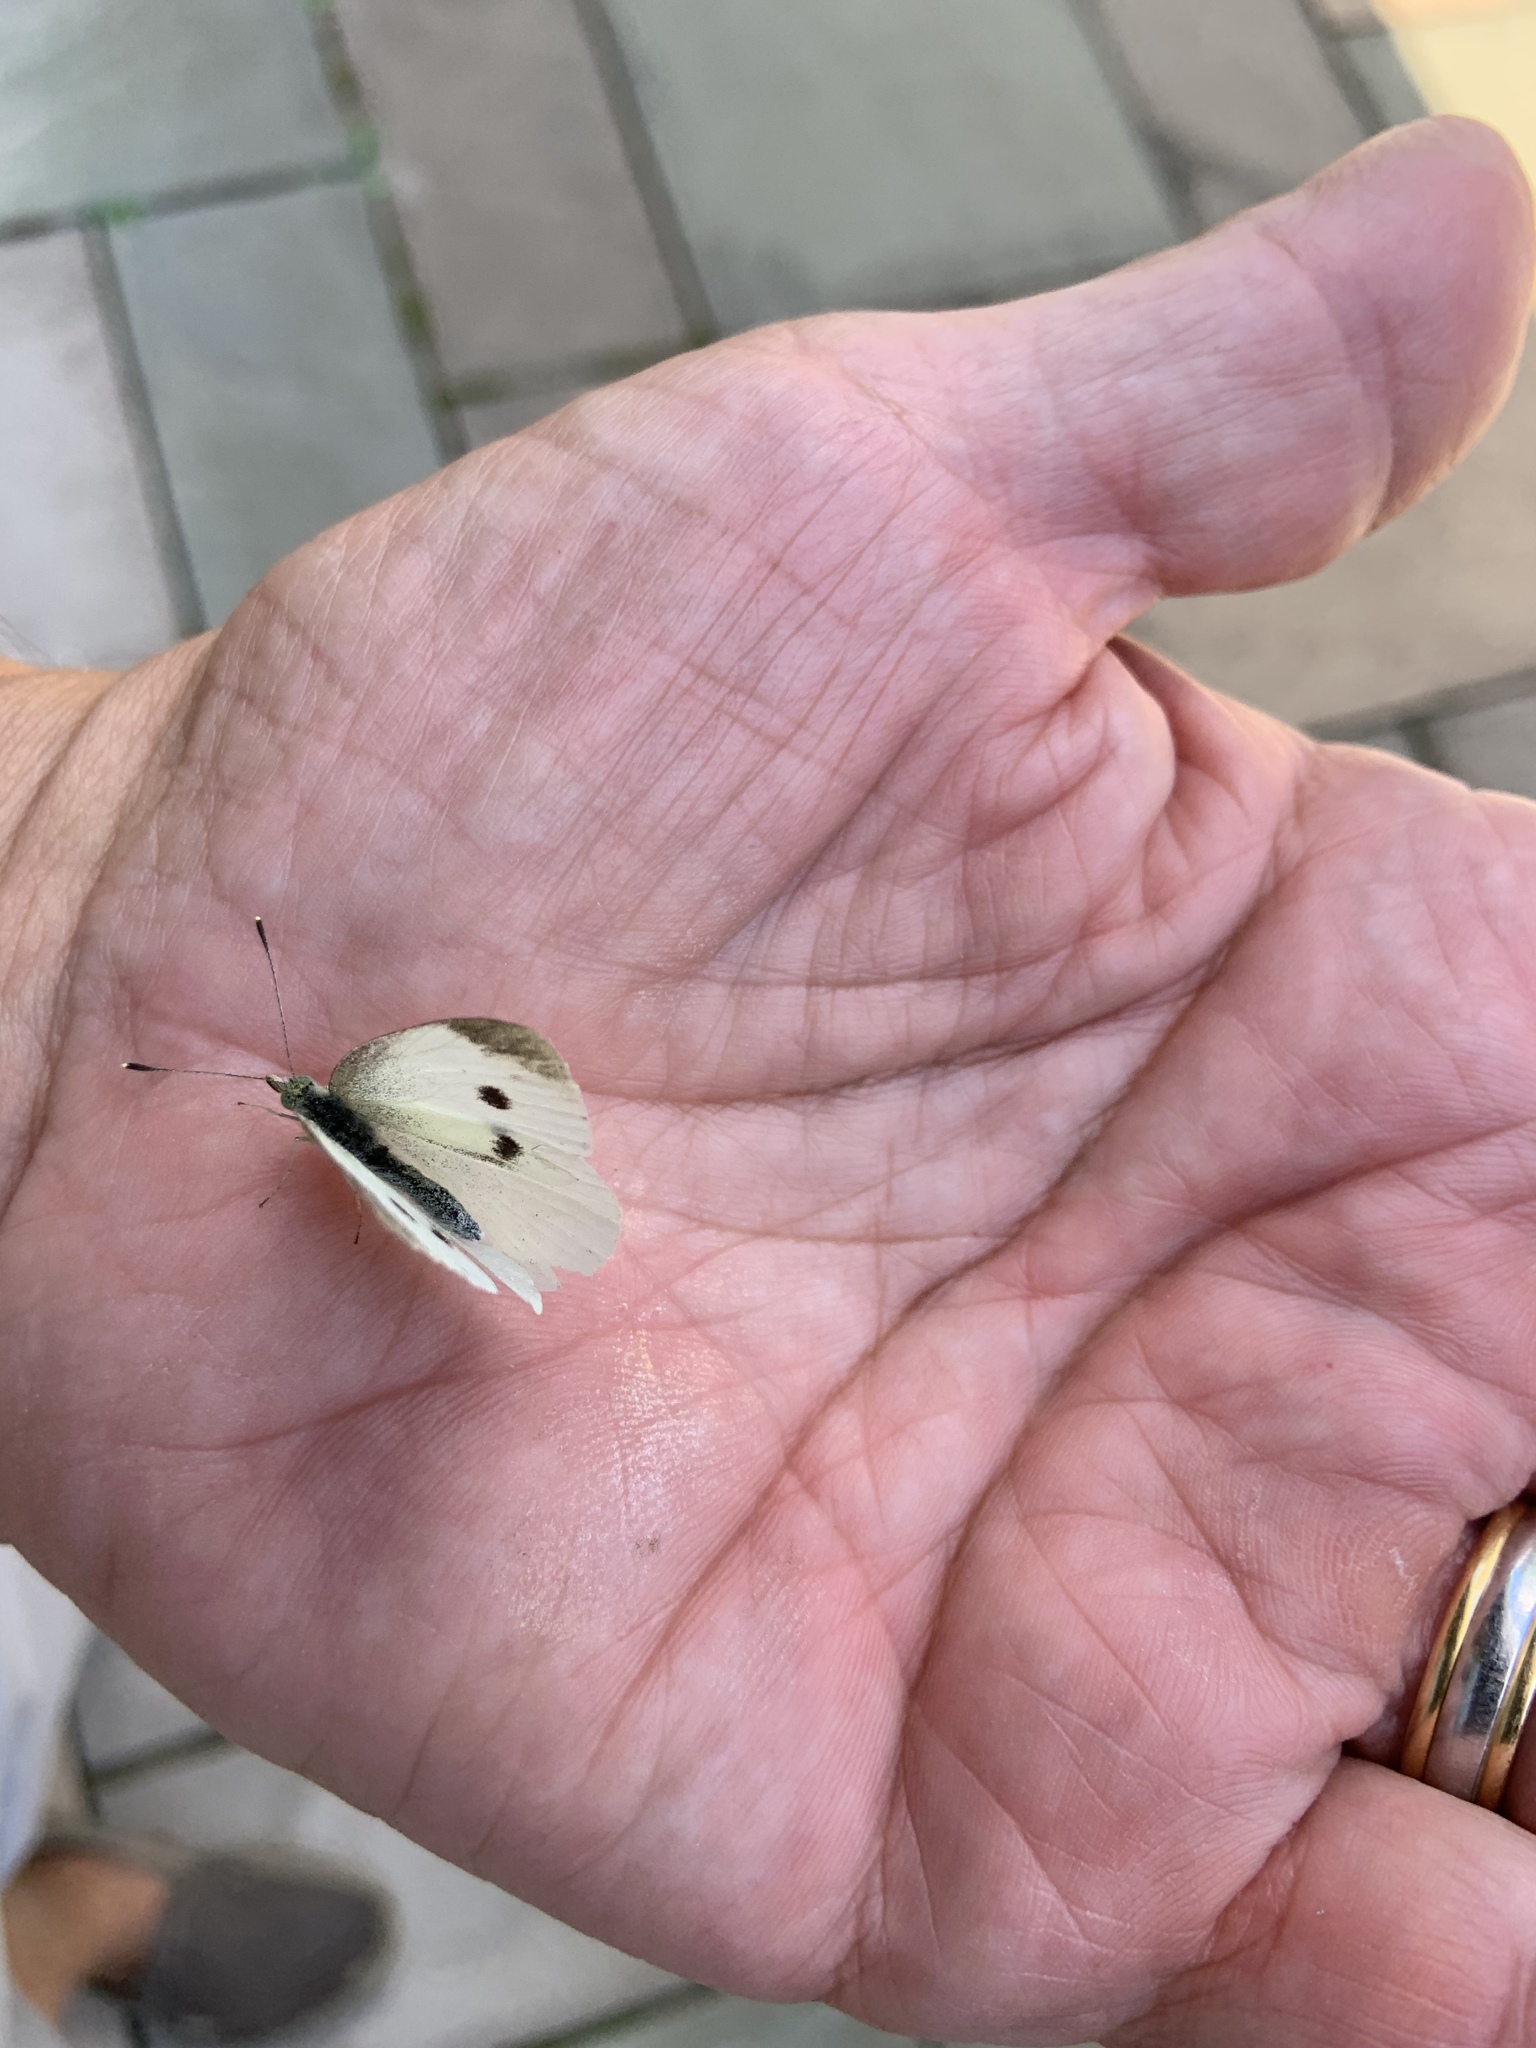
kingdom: Animalia
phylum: Arthropoda
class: Insecta
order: Lepidoptera
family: Pieridae
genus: Pieris
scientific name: Pieris rapae
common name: Small white
